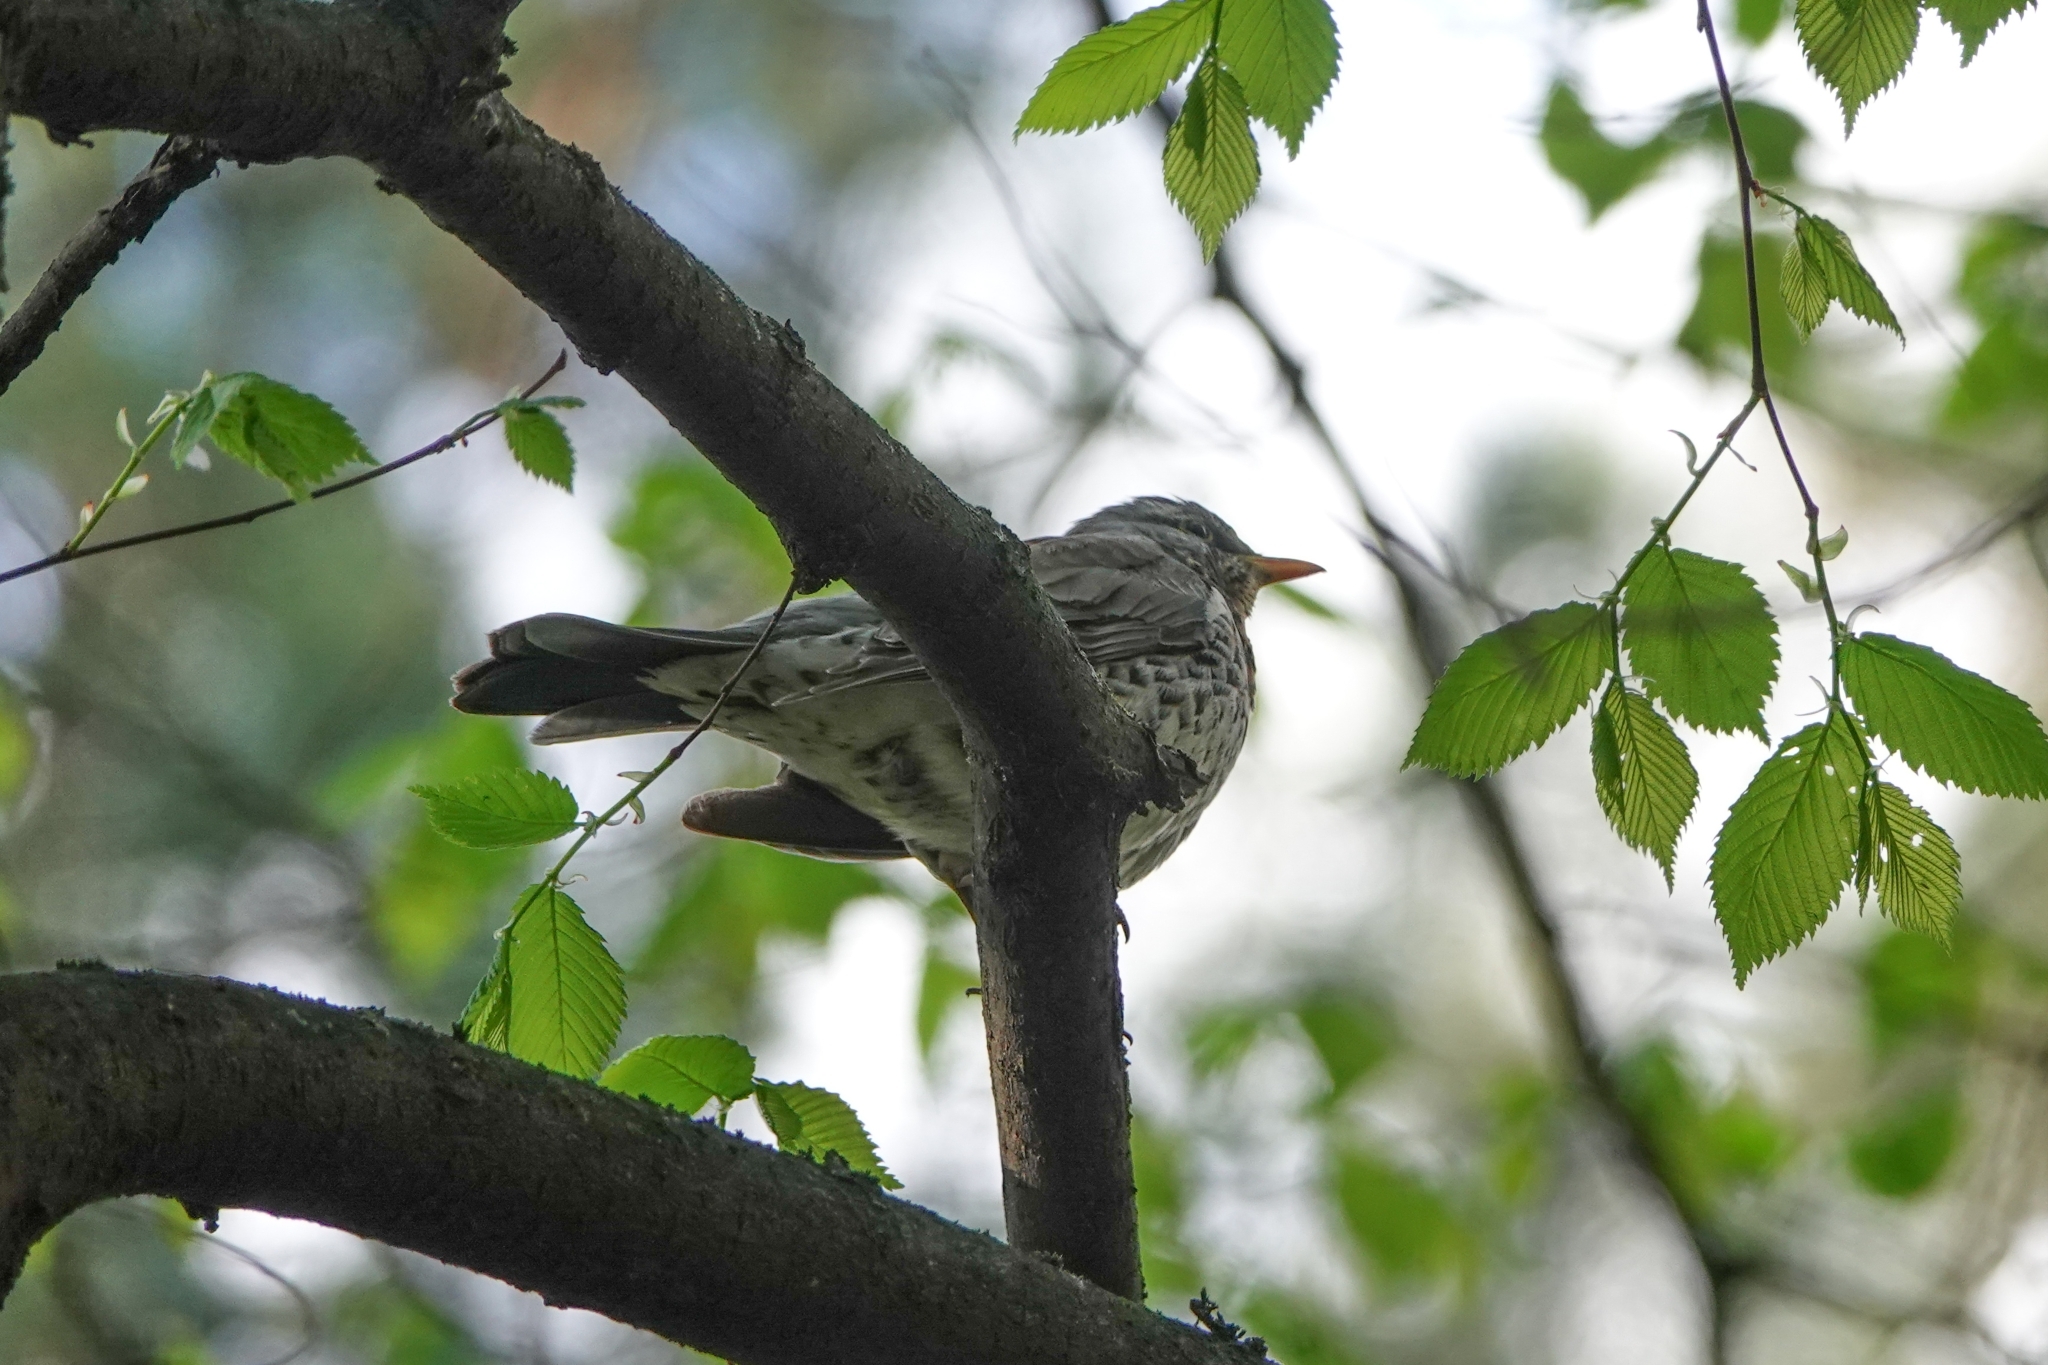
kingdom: Animalia
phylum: Chordata
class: Aves
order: Passeriformes
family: Turdidae
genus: Turdus
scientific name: Turdus pilaris
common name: Fieldfare
